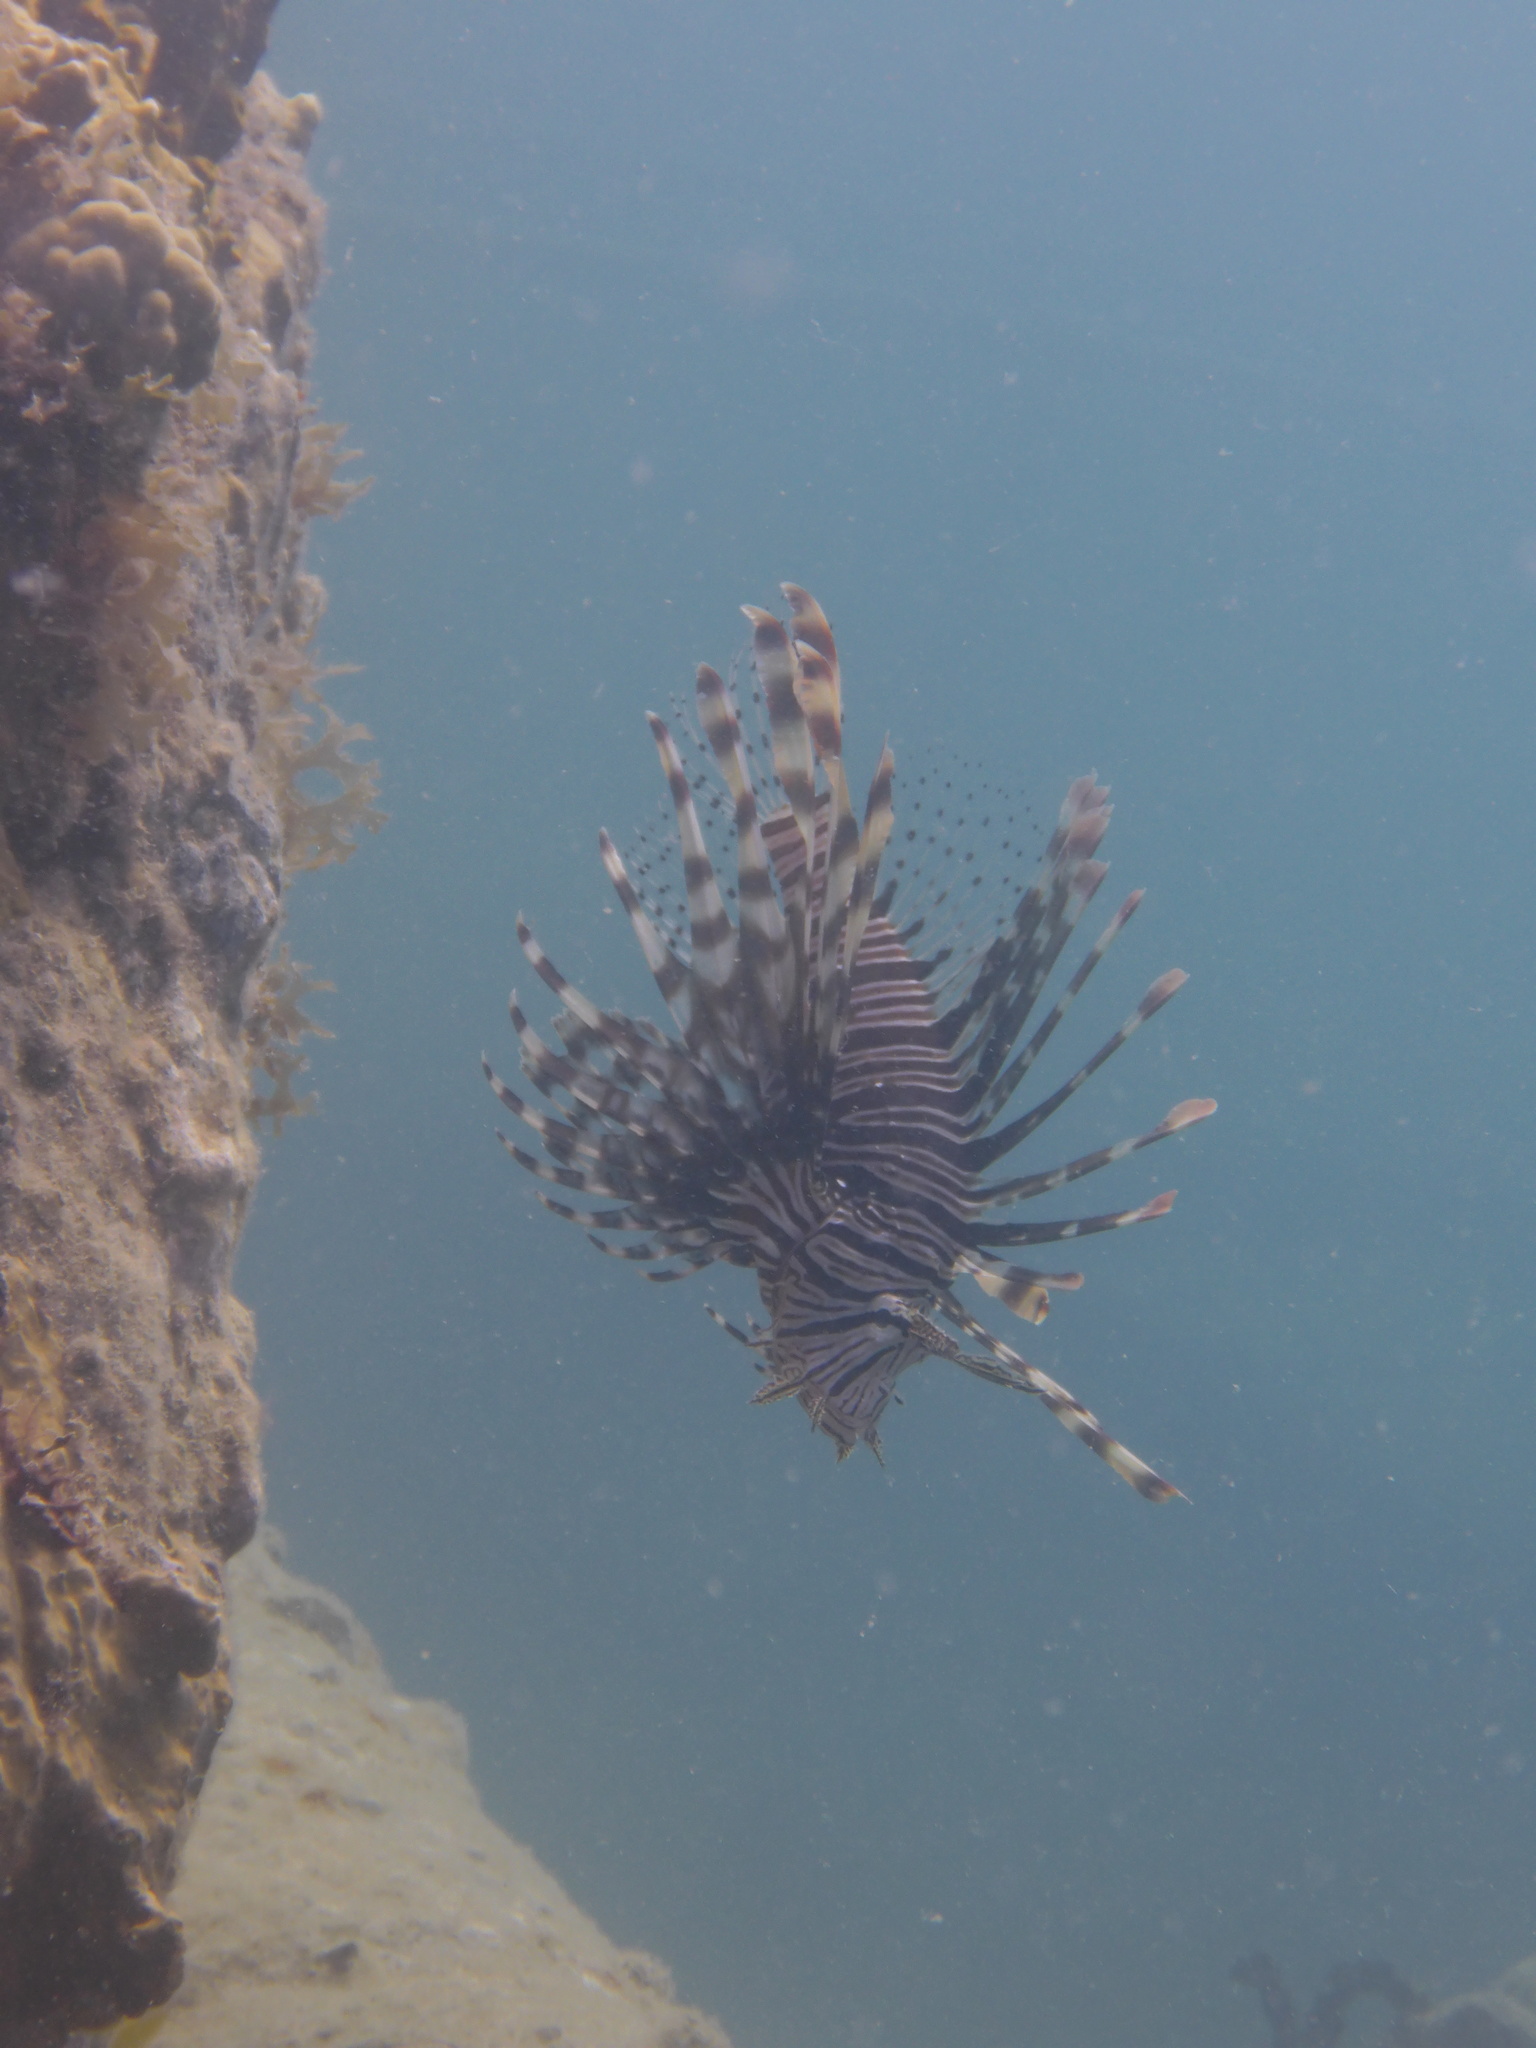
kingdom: Animalia
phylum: Chordata
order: Scorpaeniformes
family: Scorpaenidae
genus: Pterois
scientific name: Pterois volitans
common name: Lionfish
